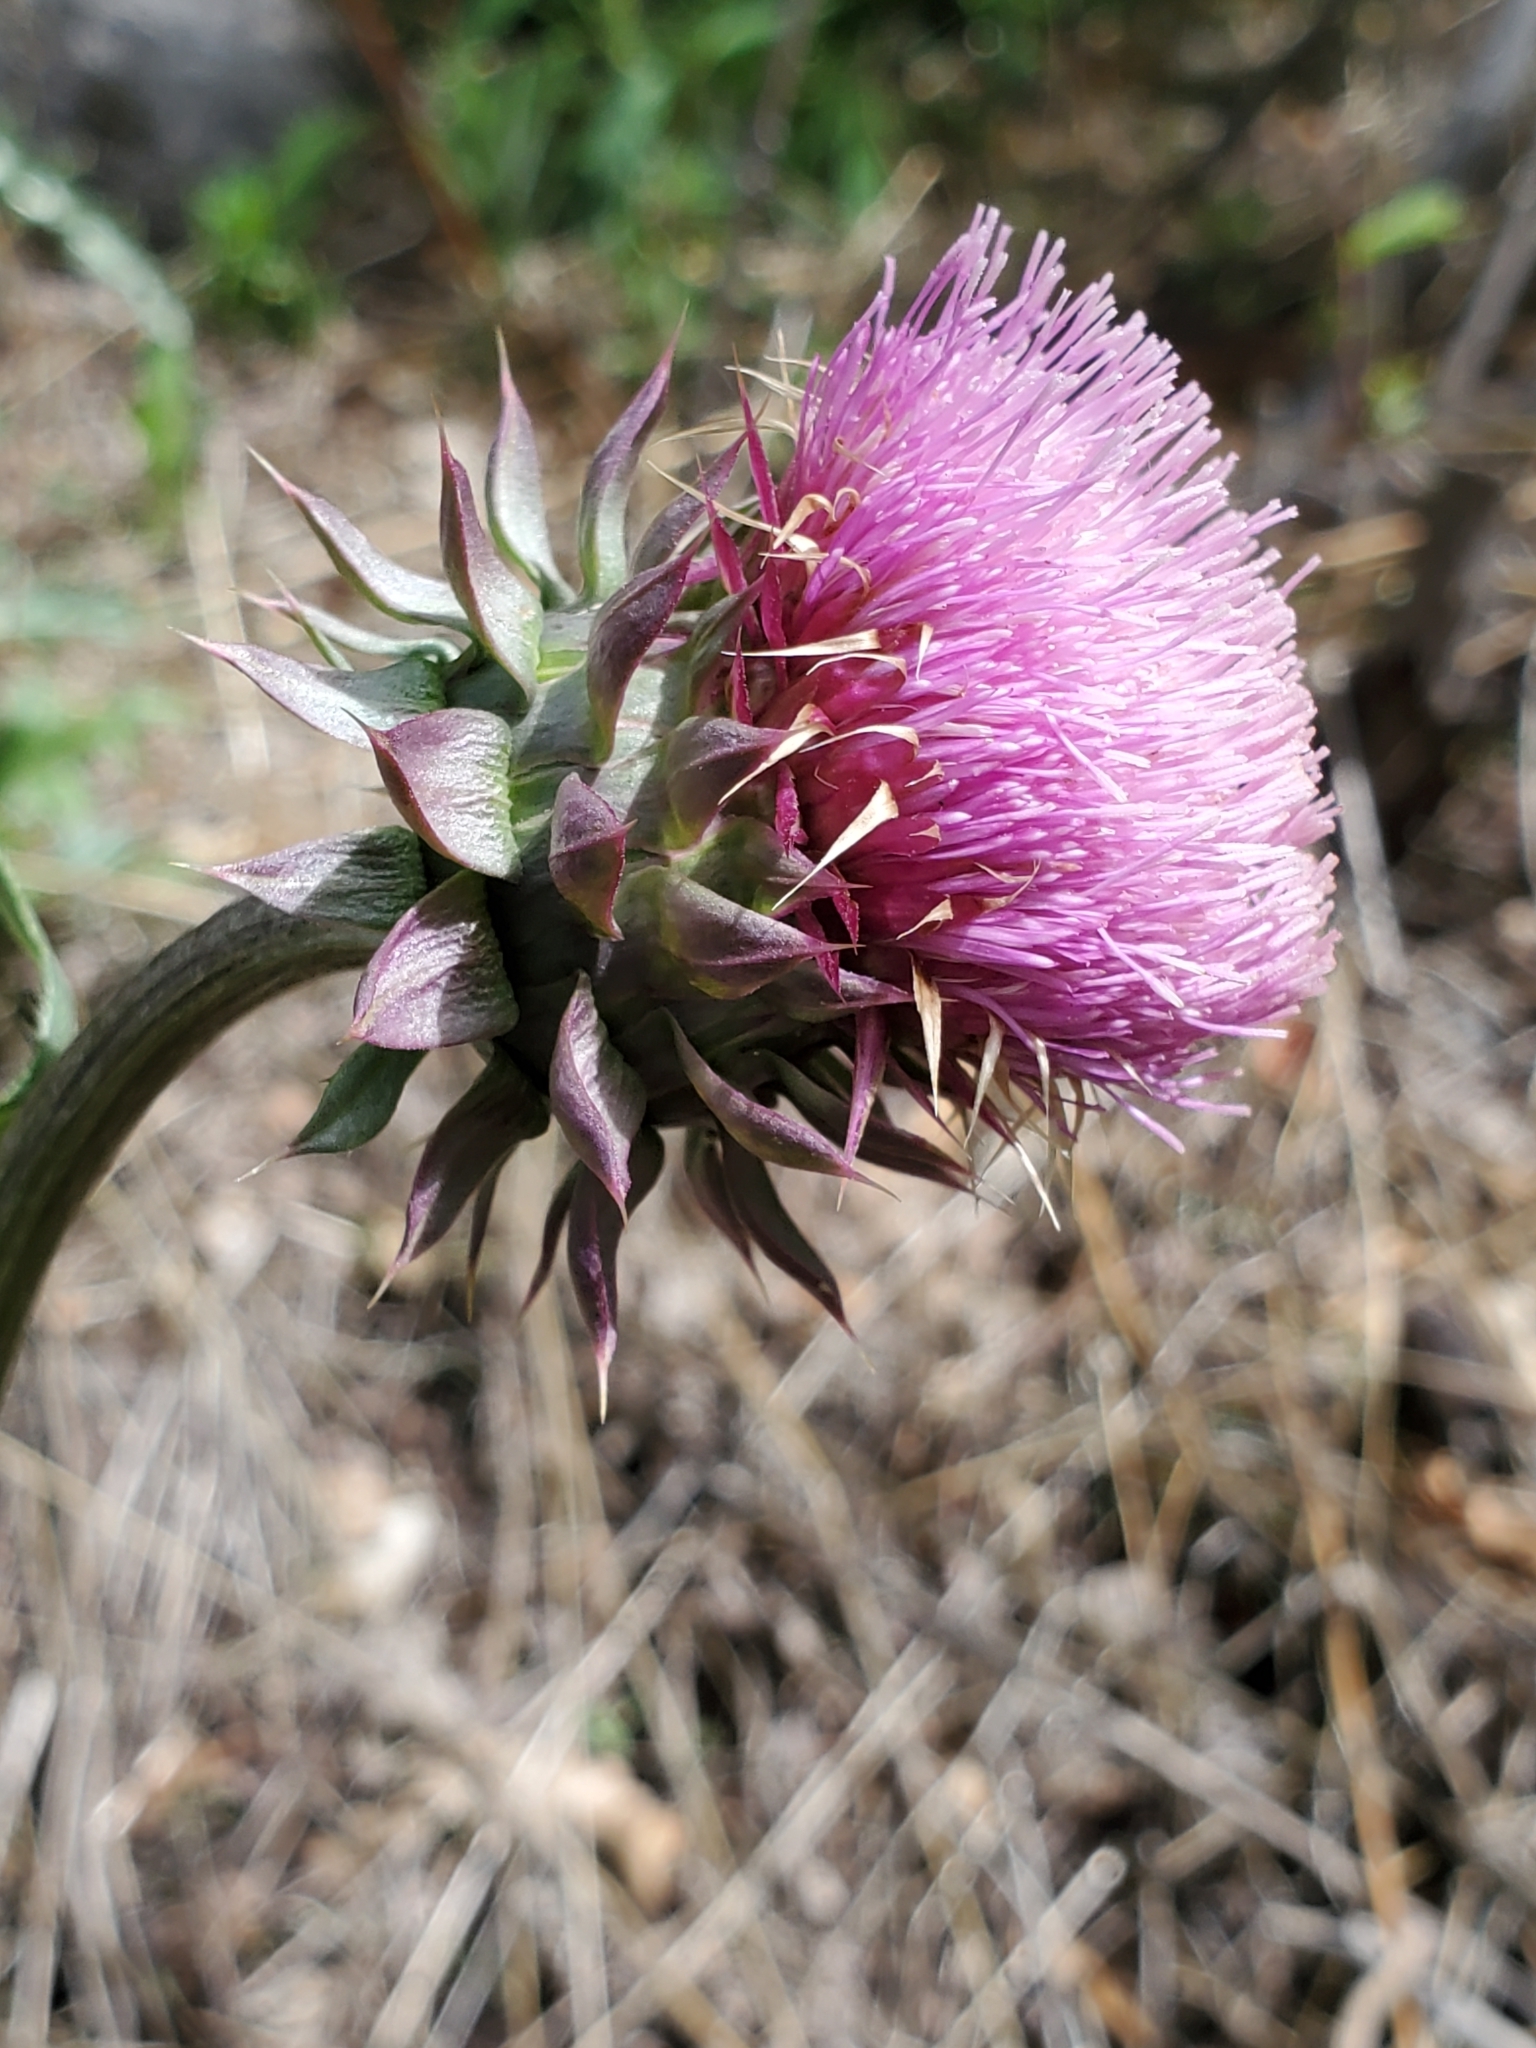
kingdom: Plantae
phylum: Tracheophyta
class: Magnoliopsida
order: Asterales
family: Asteraceae
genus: Carduus
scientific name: Carduus nutans
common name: Musk thistle
